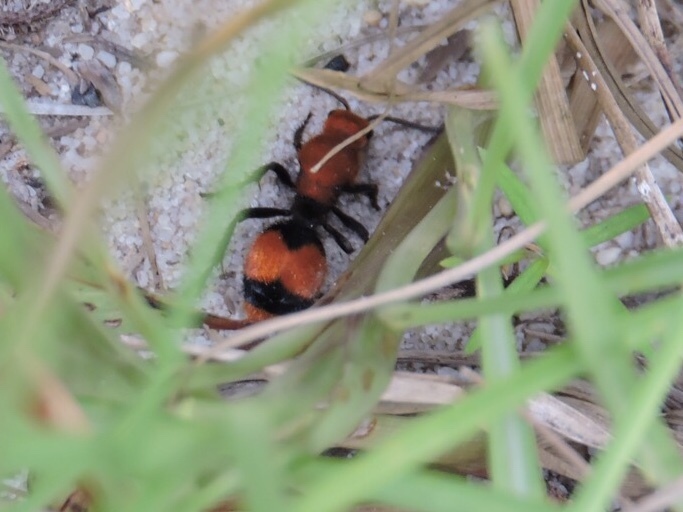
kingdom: Animalia
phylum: Arthropoda
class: Insecta
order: Hymenoptera
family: Mutillidae
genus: Dasymutilla
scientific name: Dasymutilla occidentalis
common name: Common eastern velvet ant
